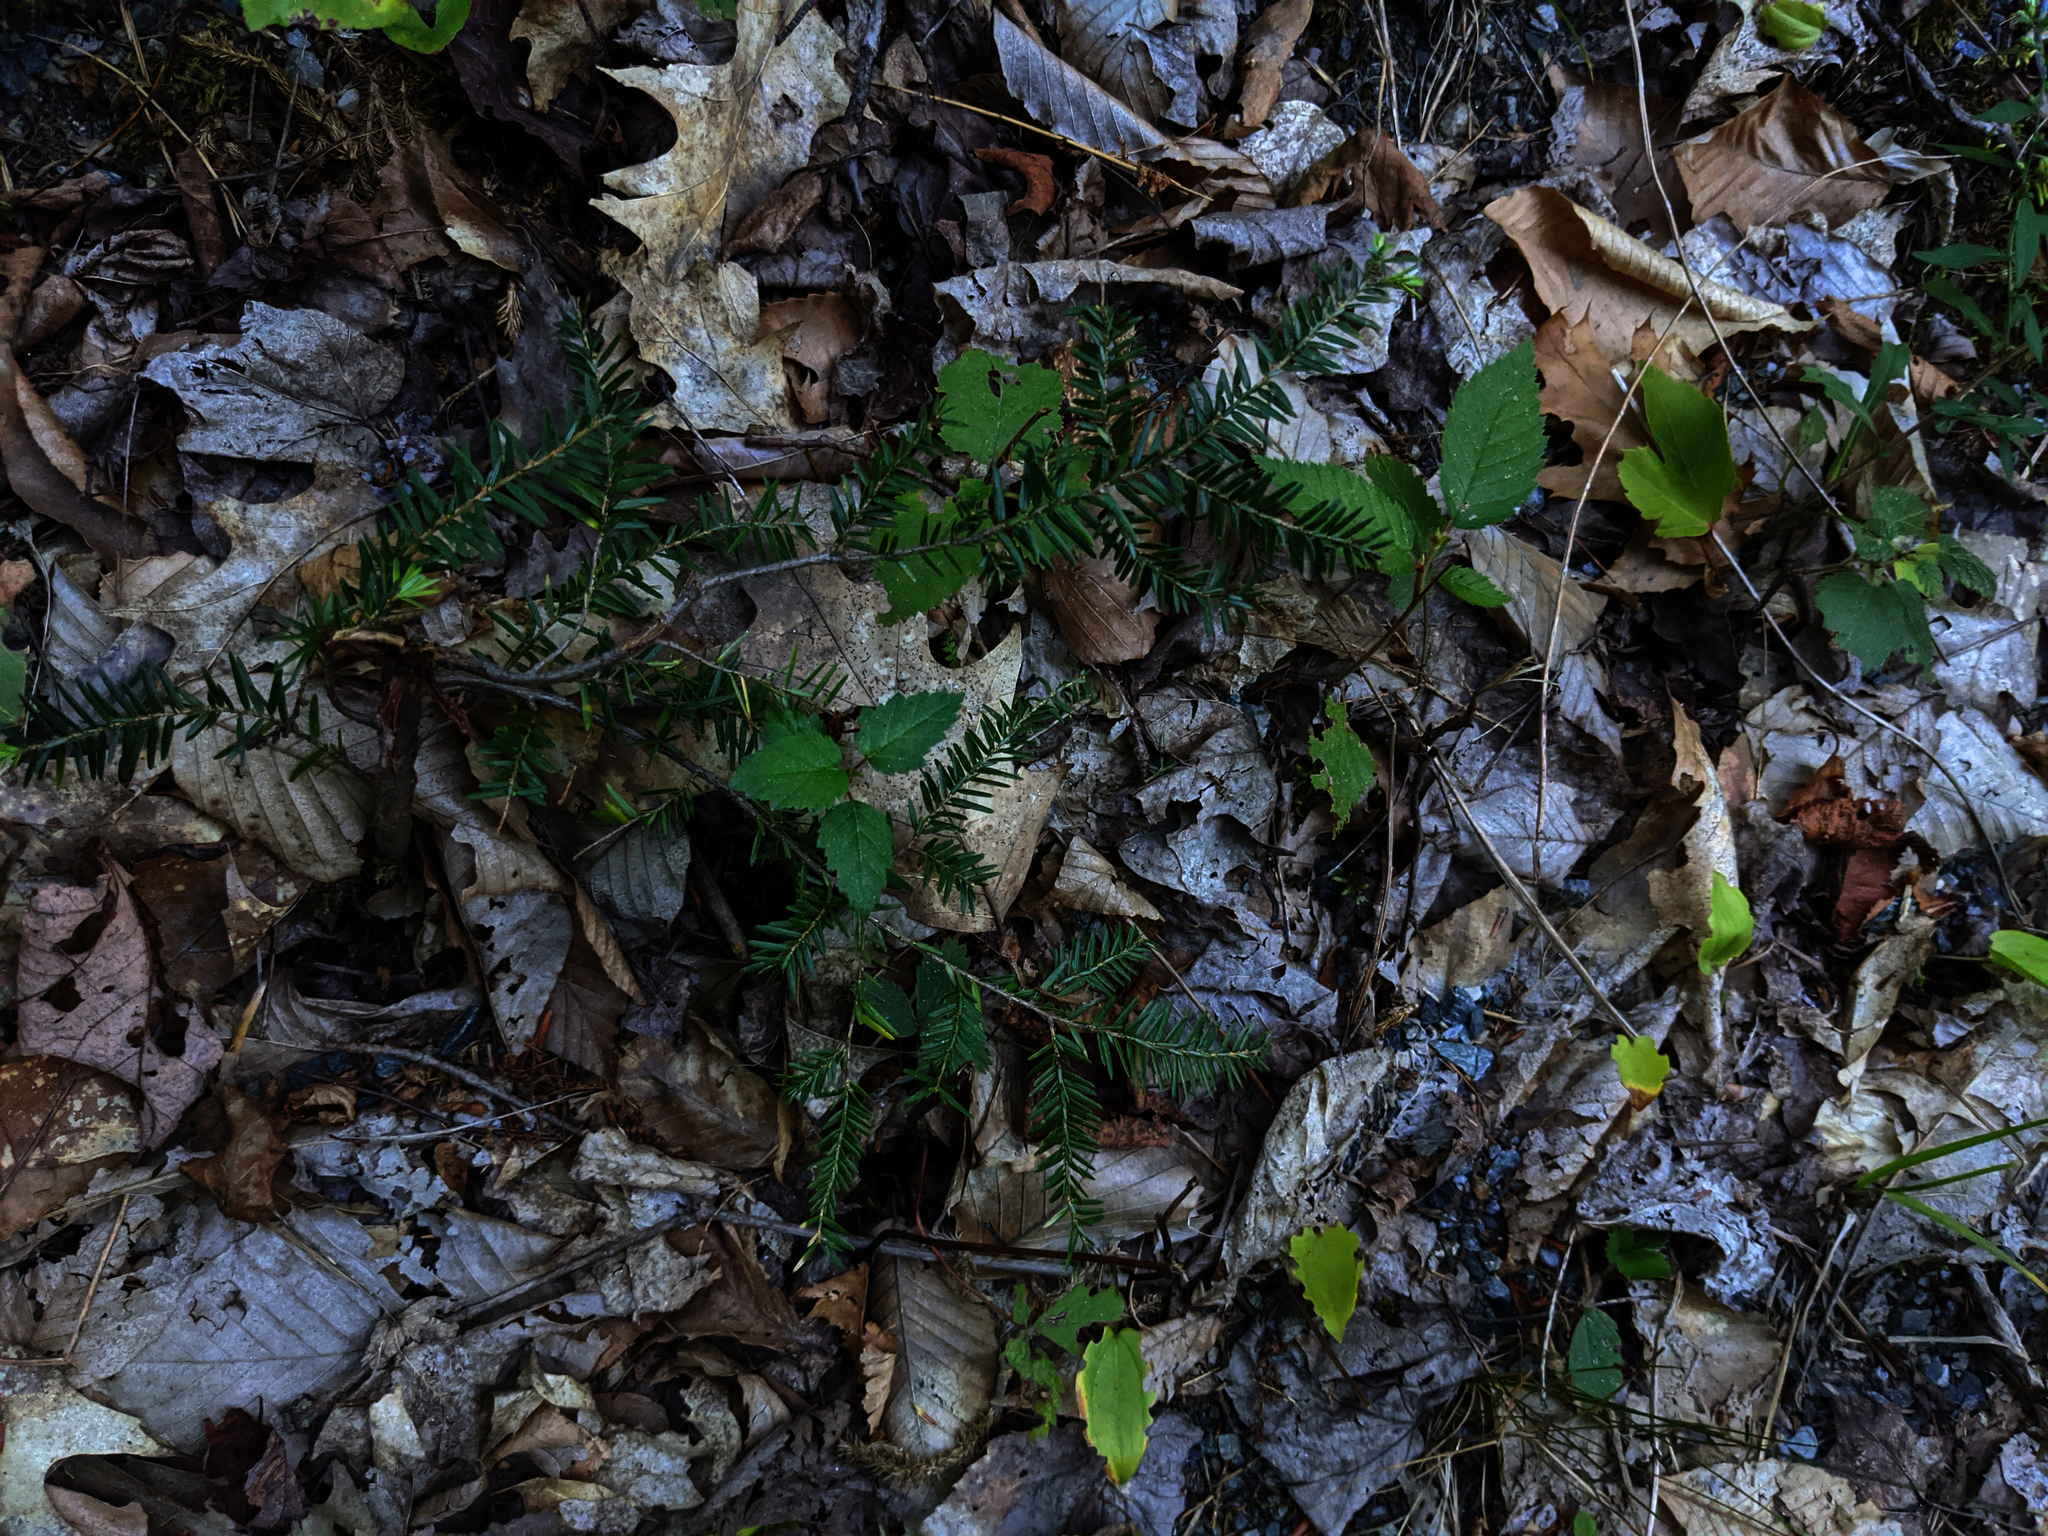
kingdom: Plantae
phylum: Tracheophyta
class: Pinopsida
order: Pinales
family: Pinaceae
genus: Tsuga
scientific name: Tsuga canadensis
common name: Eastern hemlock
